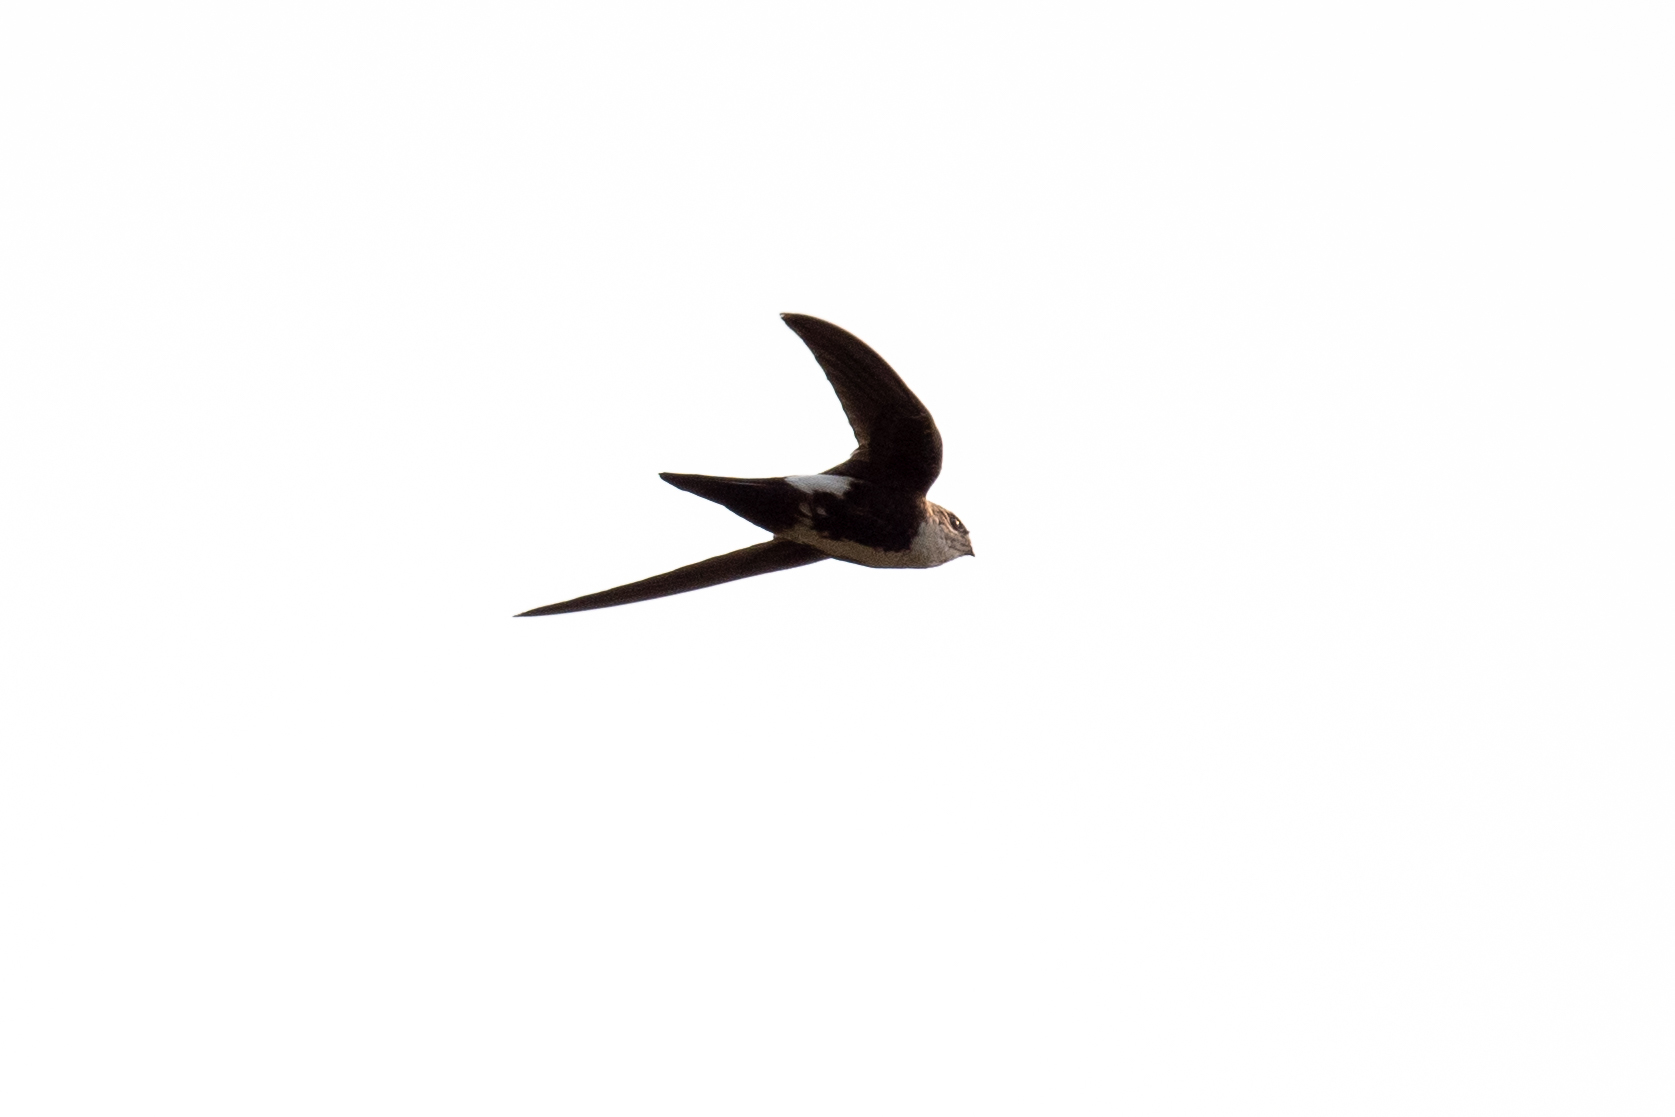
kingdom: Animalia
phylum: Chordata
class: Aves
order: Apodiformes
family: Apodidae
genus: Aeronautes
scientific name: Aeronautes saxatalis
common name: White-throated swift
